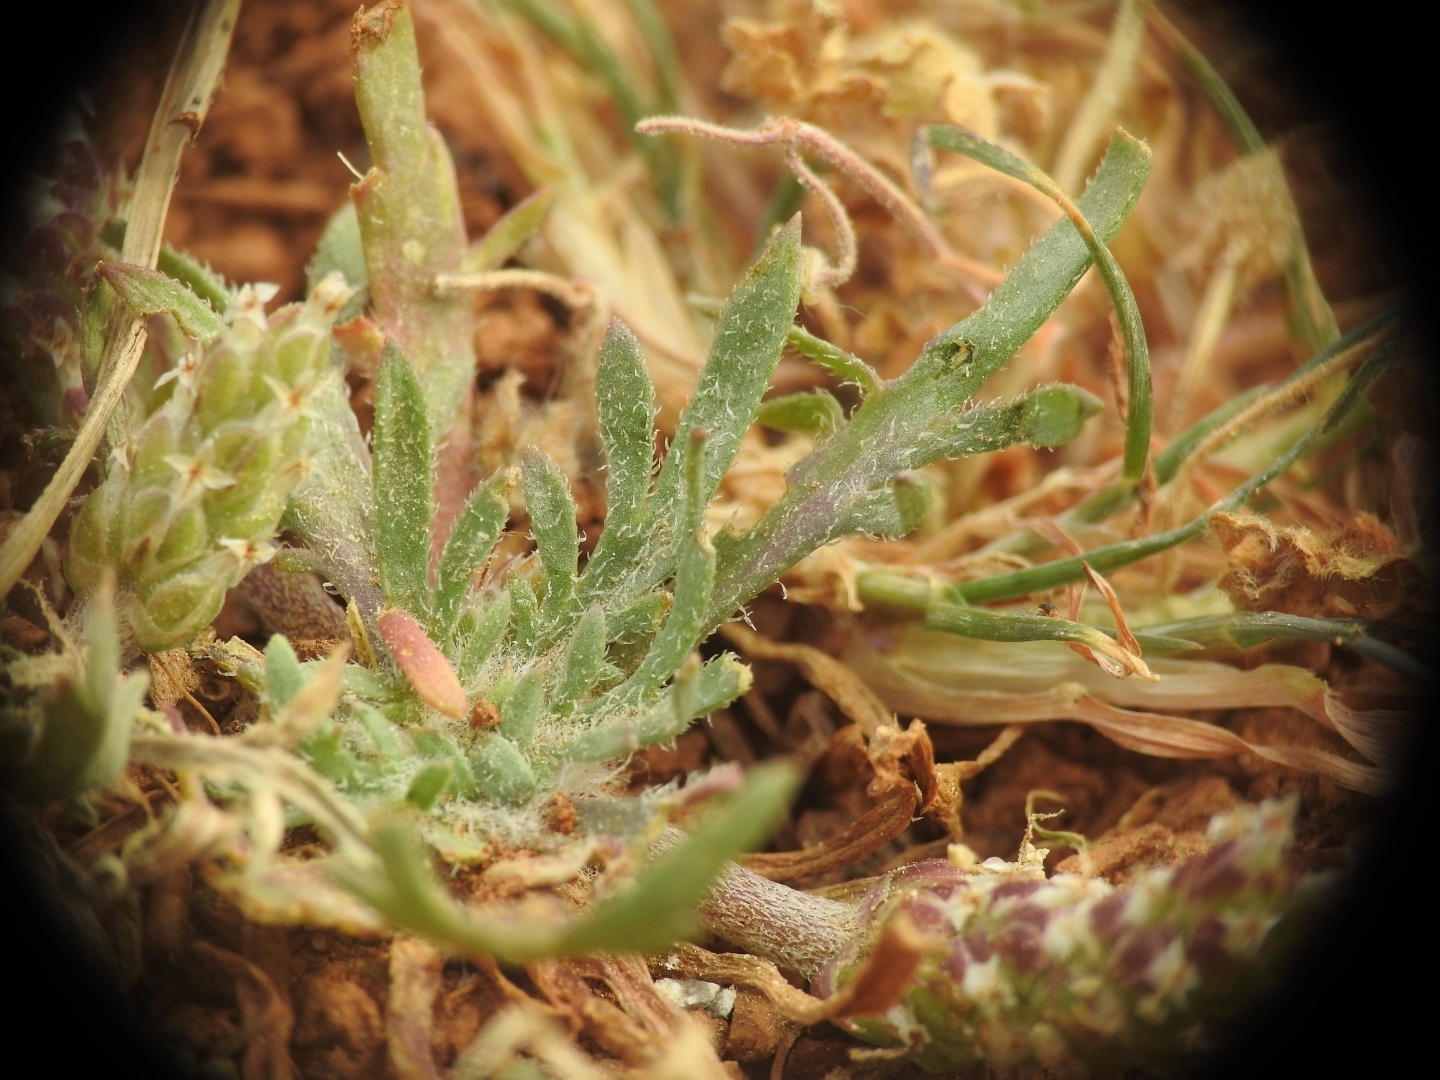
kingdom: Plantae
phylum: Tracheophyta
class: Magnoliopsida
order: Lamiales
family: Plantaginaceae
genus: Plantago
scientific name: Plantago coronopus
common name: Buck's-horn plantain
